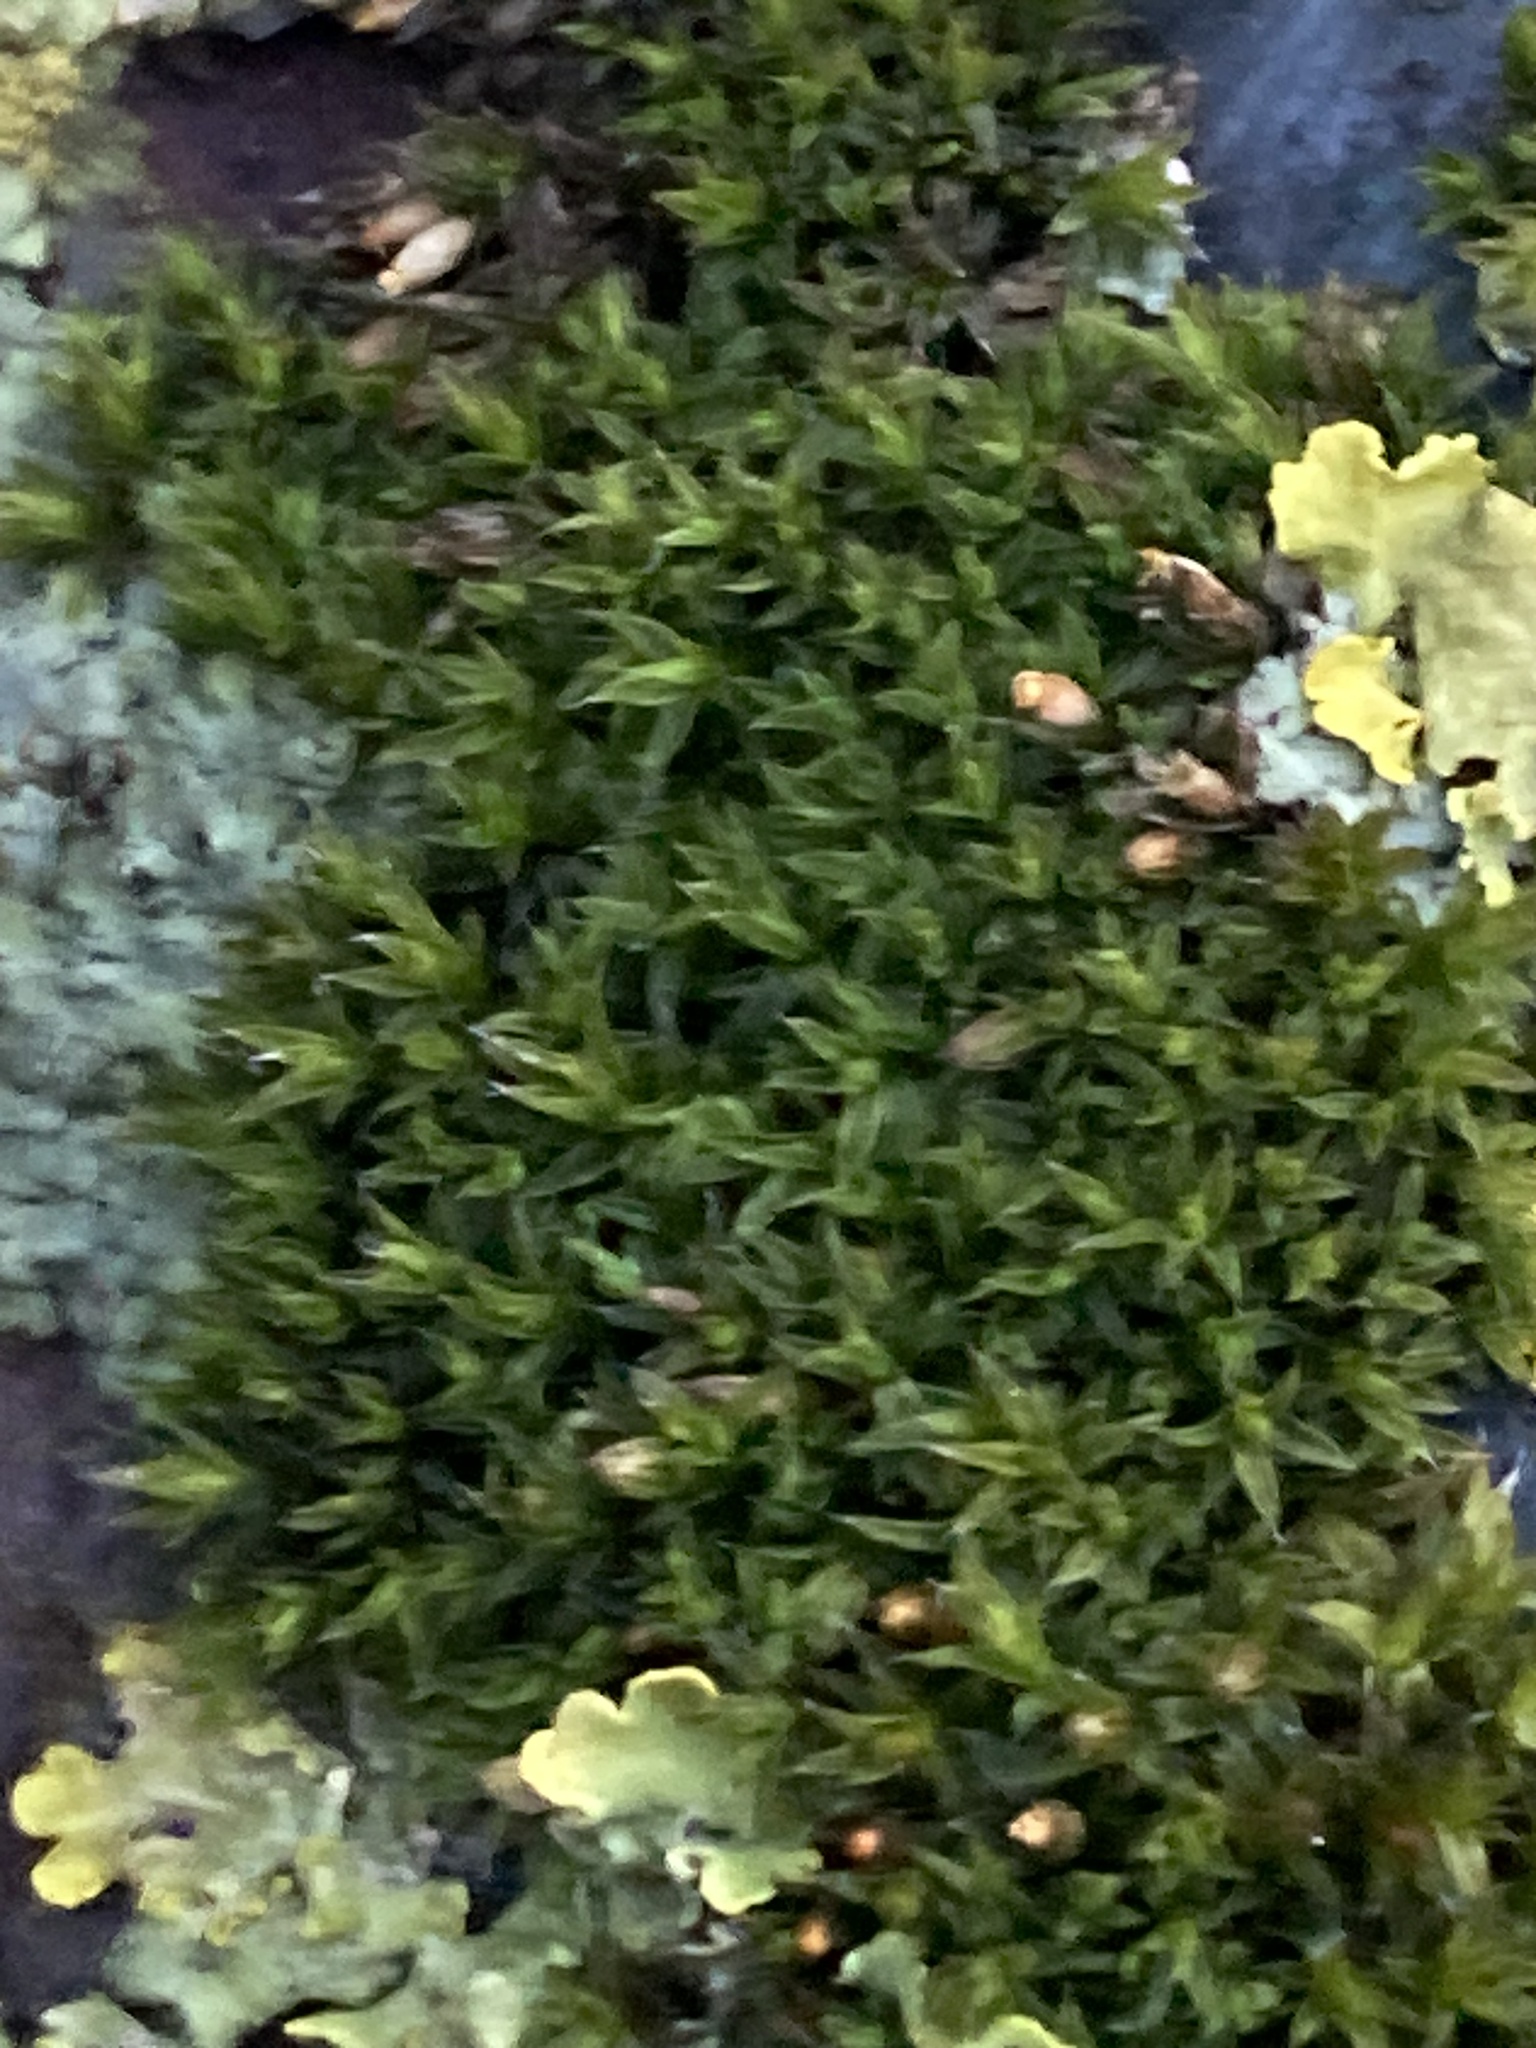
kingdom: Plantae
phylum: Bryophyta
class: Bryopsida
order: Orthotrichales
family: Orthotrichaceae
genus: Orthotrichum
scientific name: Orthotrichum diaphanum
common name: White-tipped bristle-moss
